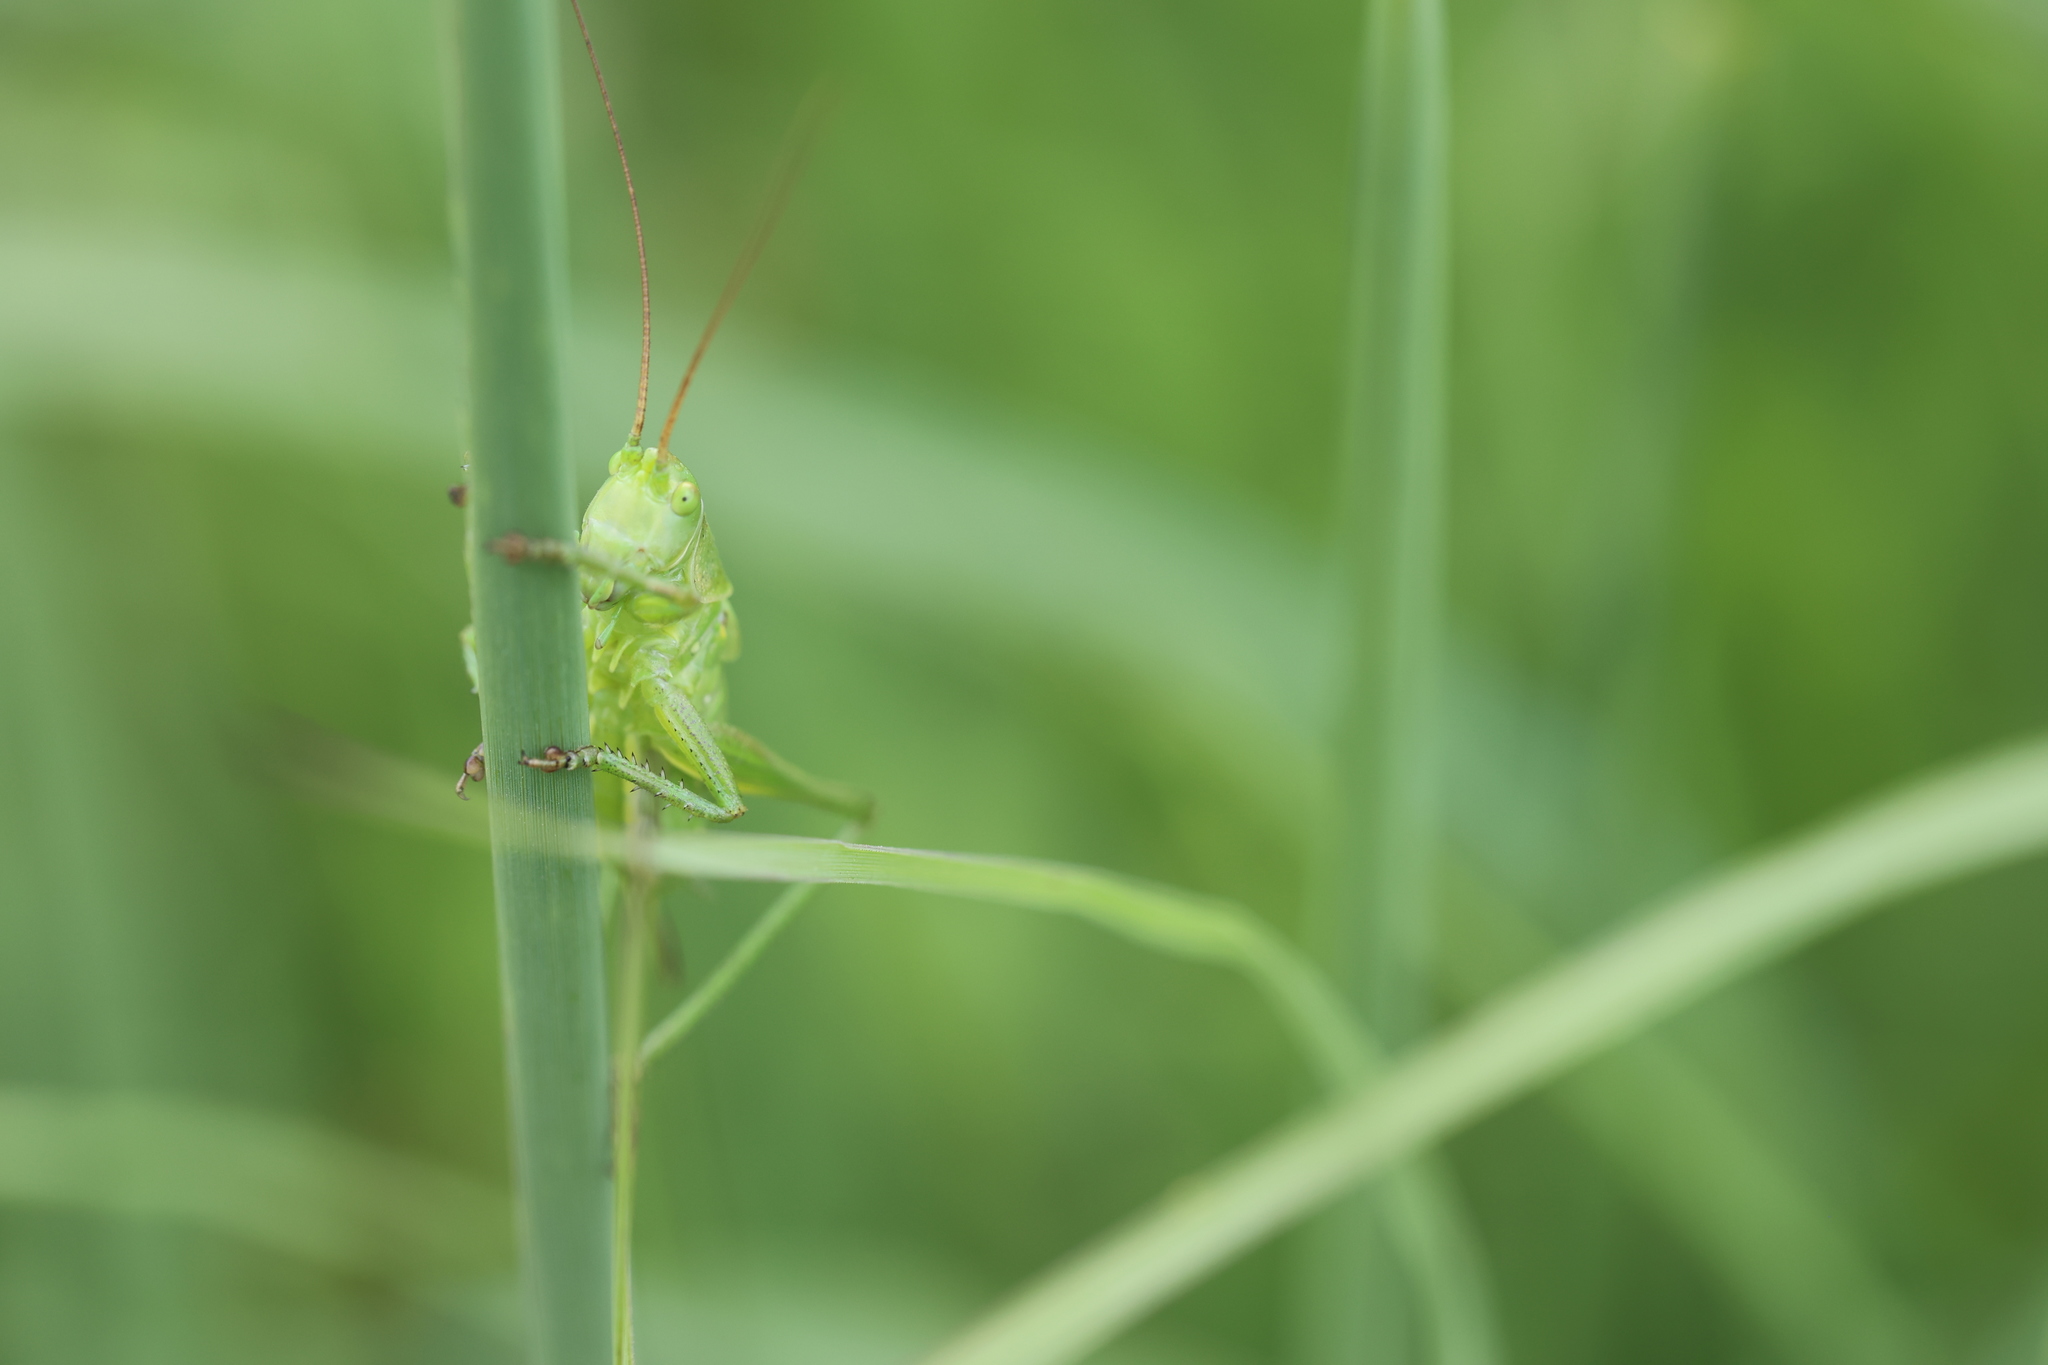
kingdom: Animalia
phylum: Arthropoda
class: Insecta
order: Orthoptera
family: Tettigoniidae
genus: Tettigonia
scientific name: Tettigonia viridissima
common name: Great green bush-cricket
